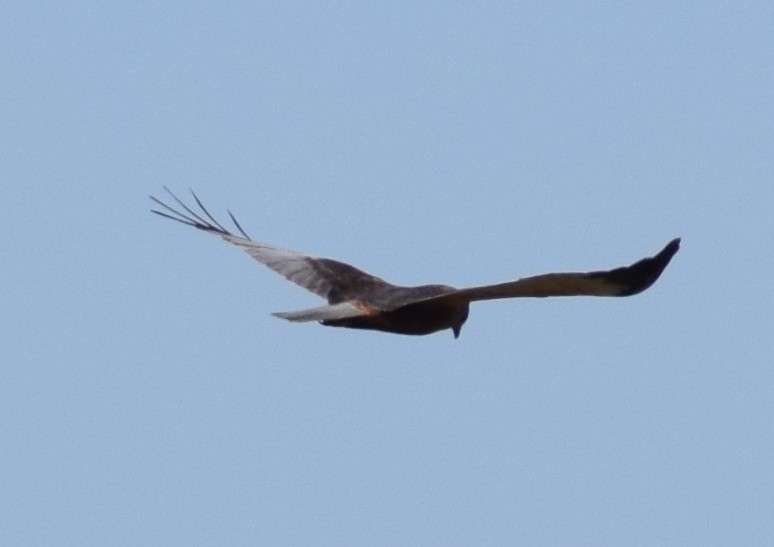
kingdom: Animalia
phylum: Chordata
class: Aves
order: Accipitriformes
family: Accipitridae
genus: Circus
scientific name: Circus aeruginosus
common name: Western marsh harrier
